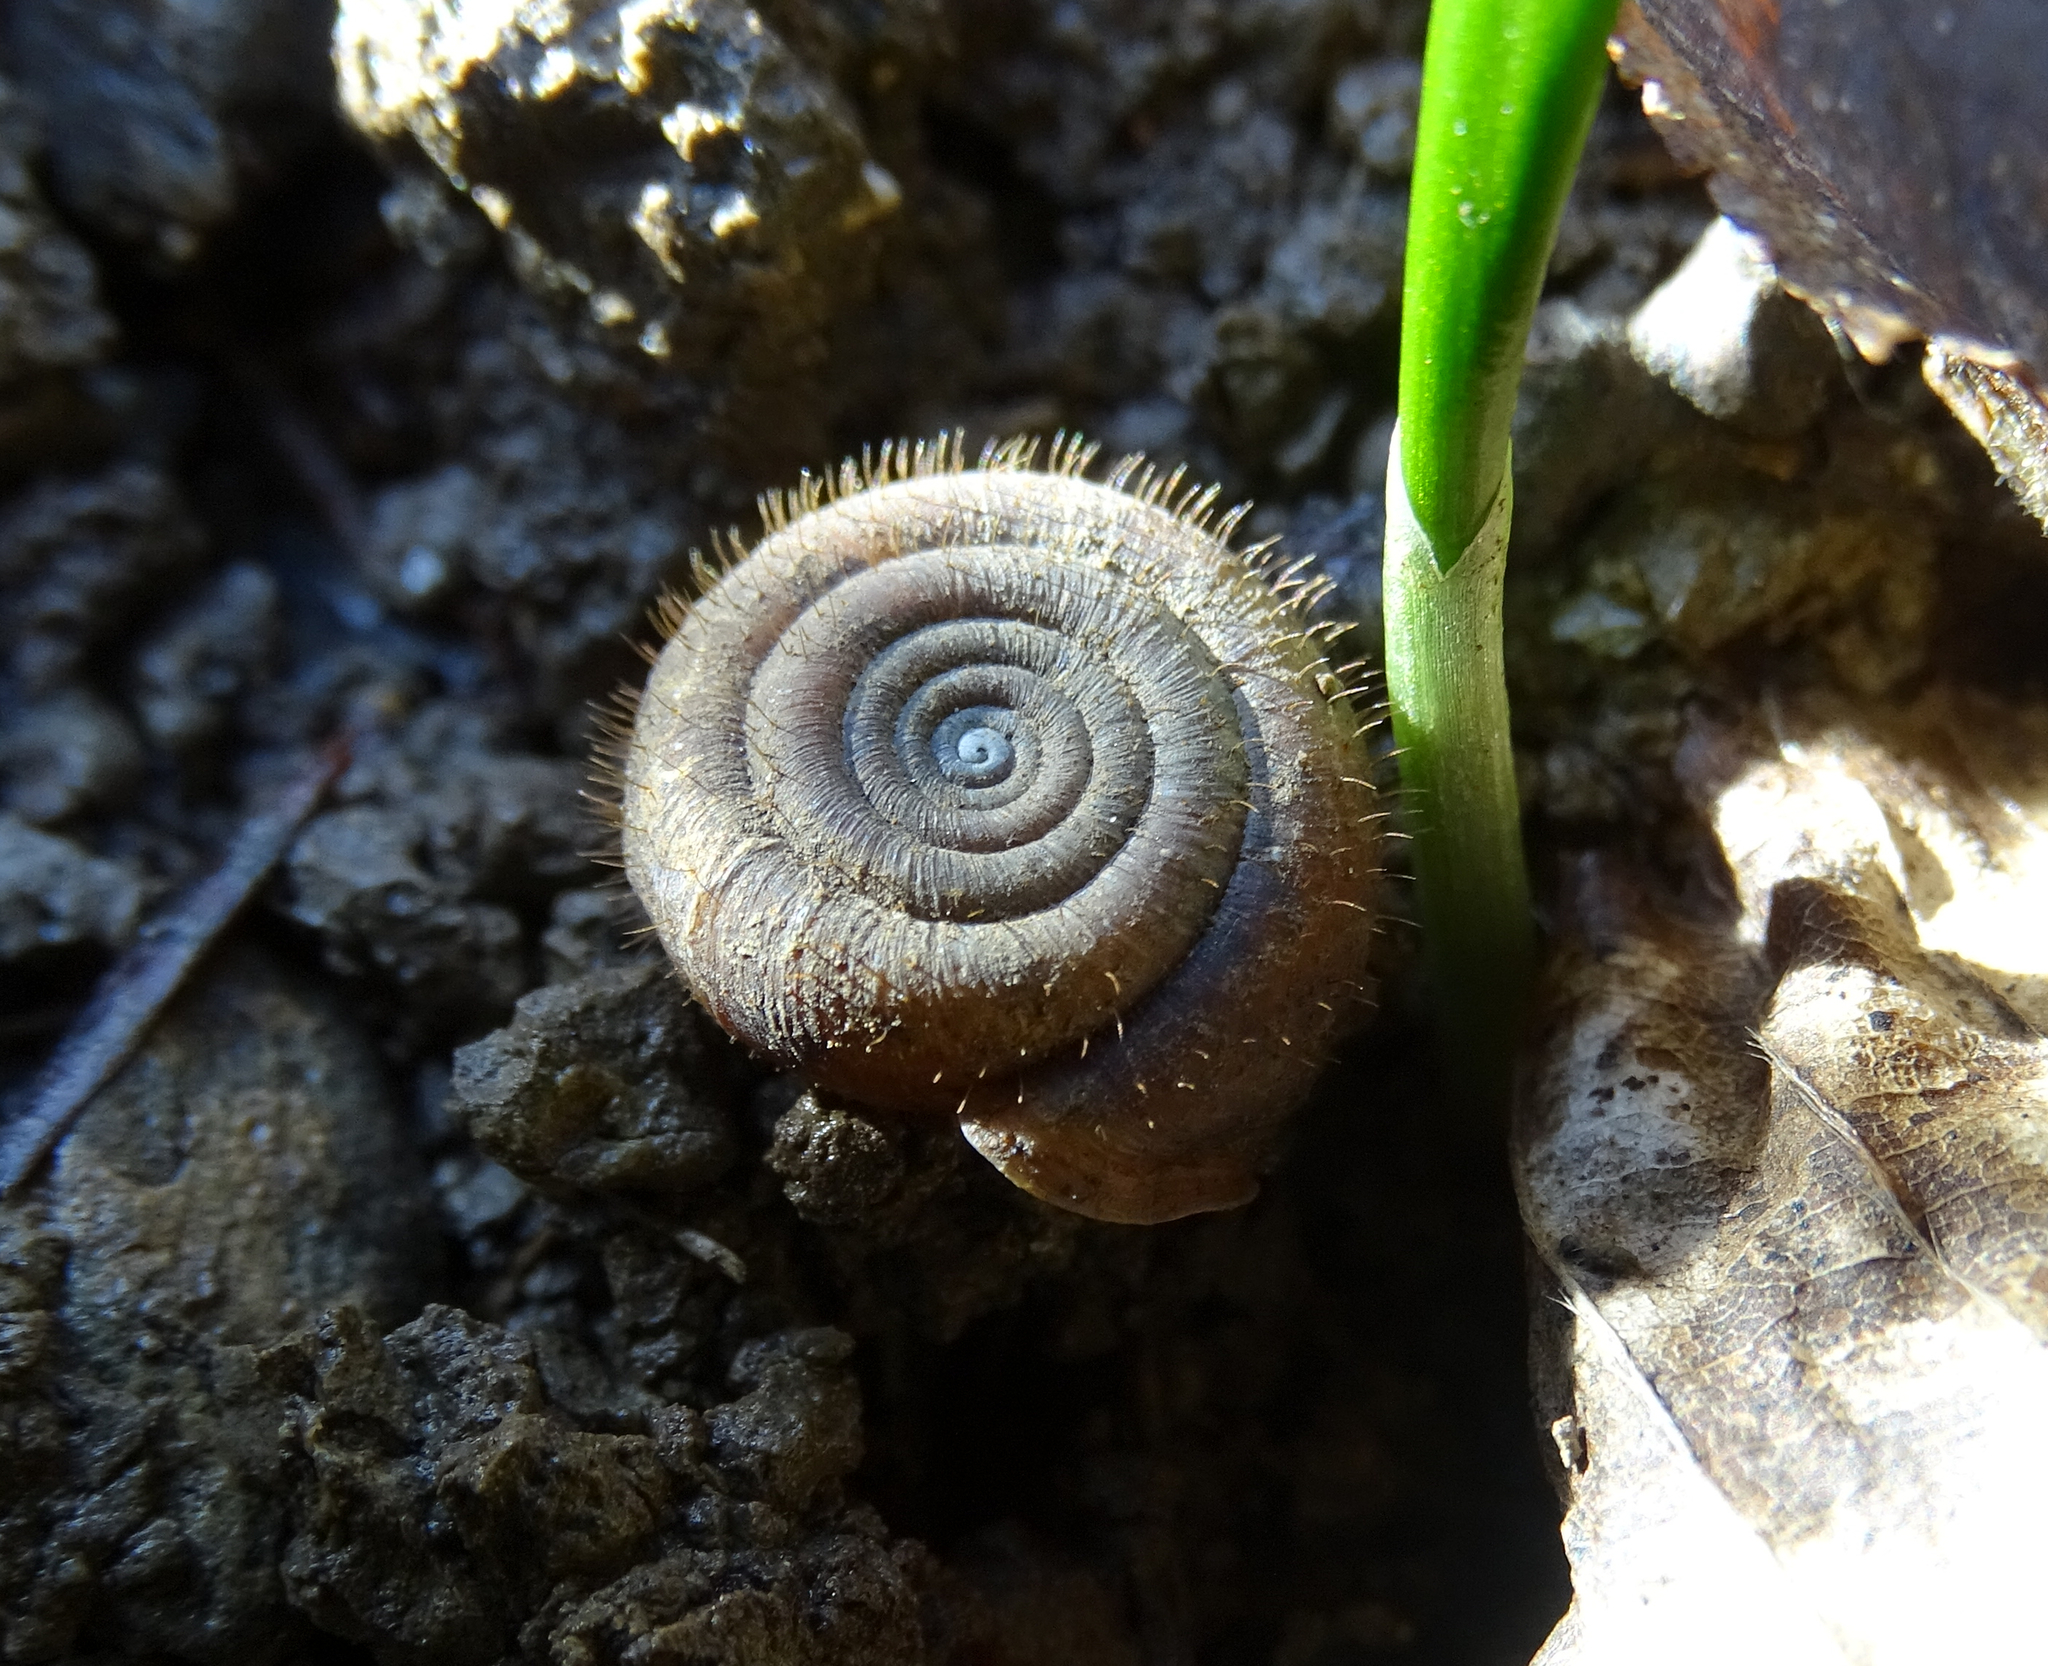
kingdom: Animalia
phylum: Mollusca
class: Gastropoda
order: Stylommatophora
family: Helicodontidae
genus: Helicodonta
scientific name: Helicodonta obvoluta
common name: Cheese snail
